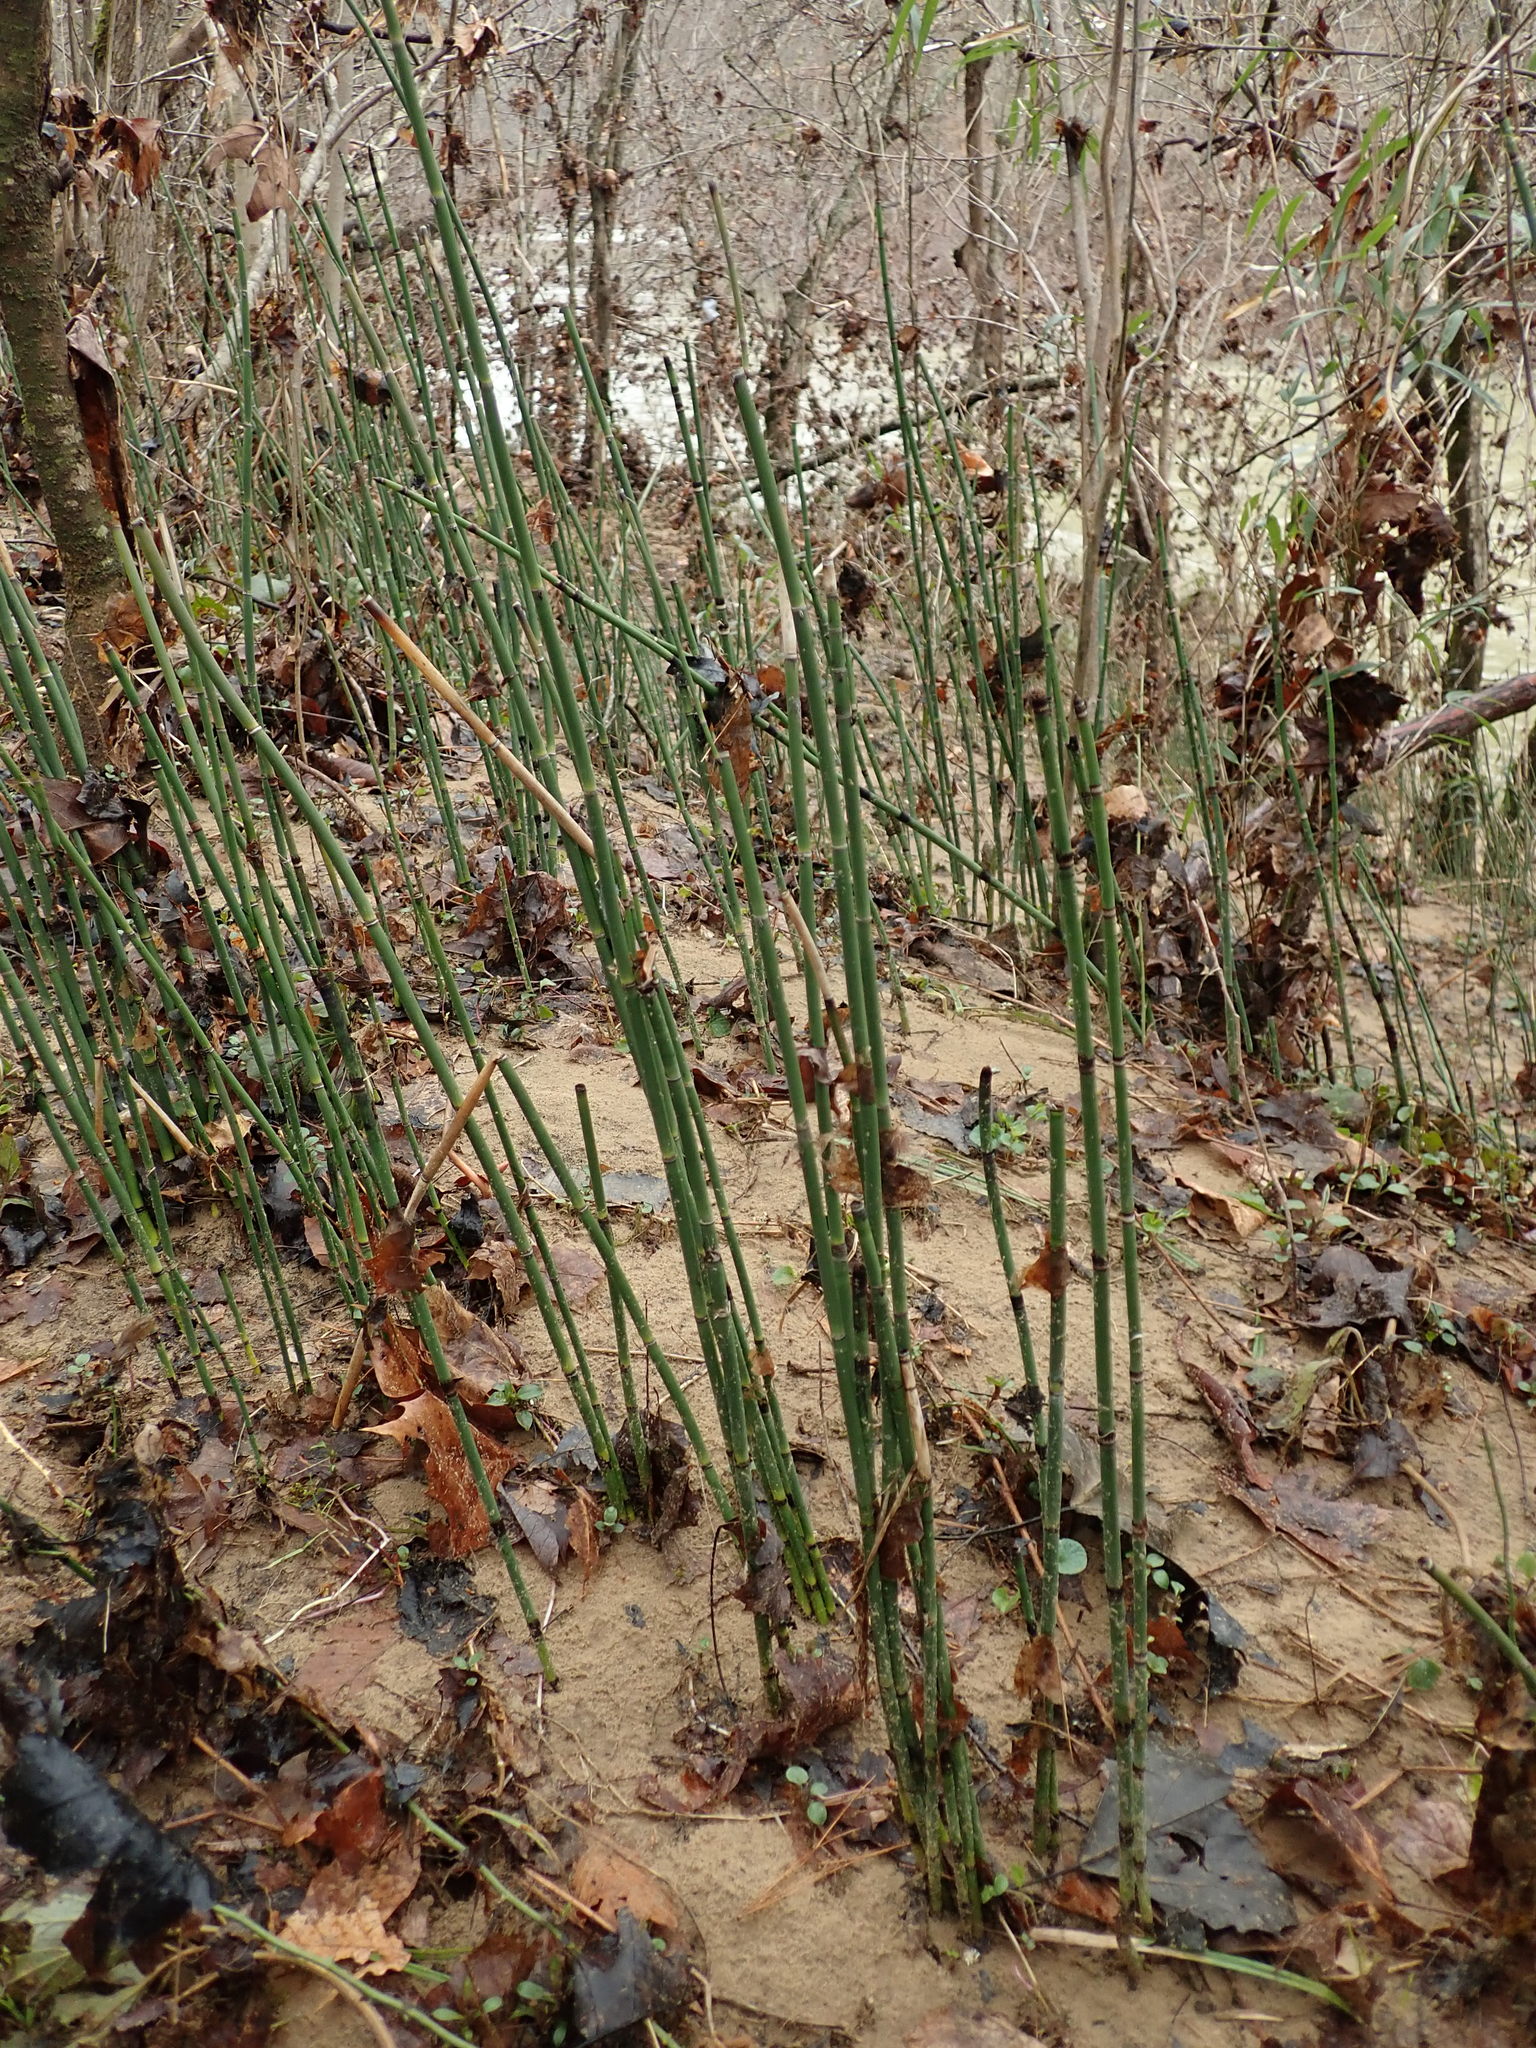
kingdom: Plantae
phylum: Tracheophyta
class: Polypodiopsida
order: Equisetales
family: Equisetaceae
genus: Equisetum
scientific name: Equisetum hyemale
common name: Rough horsetail
